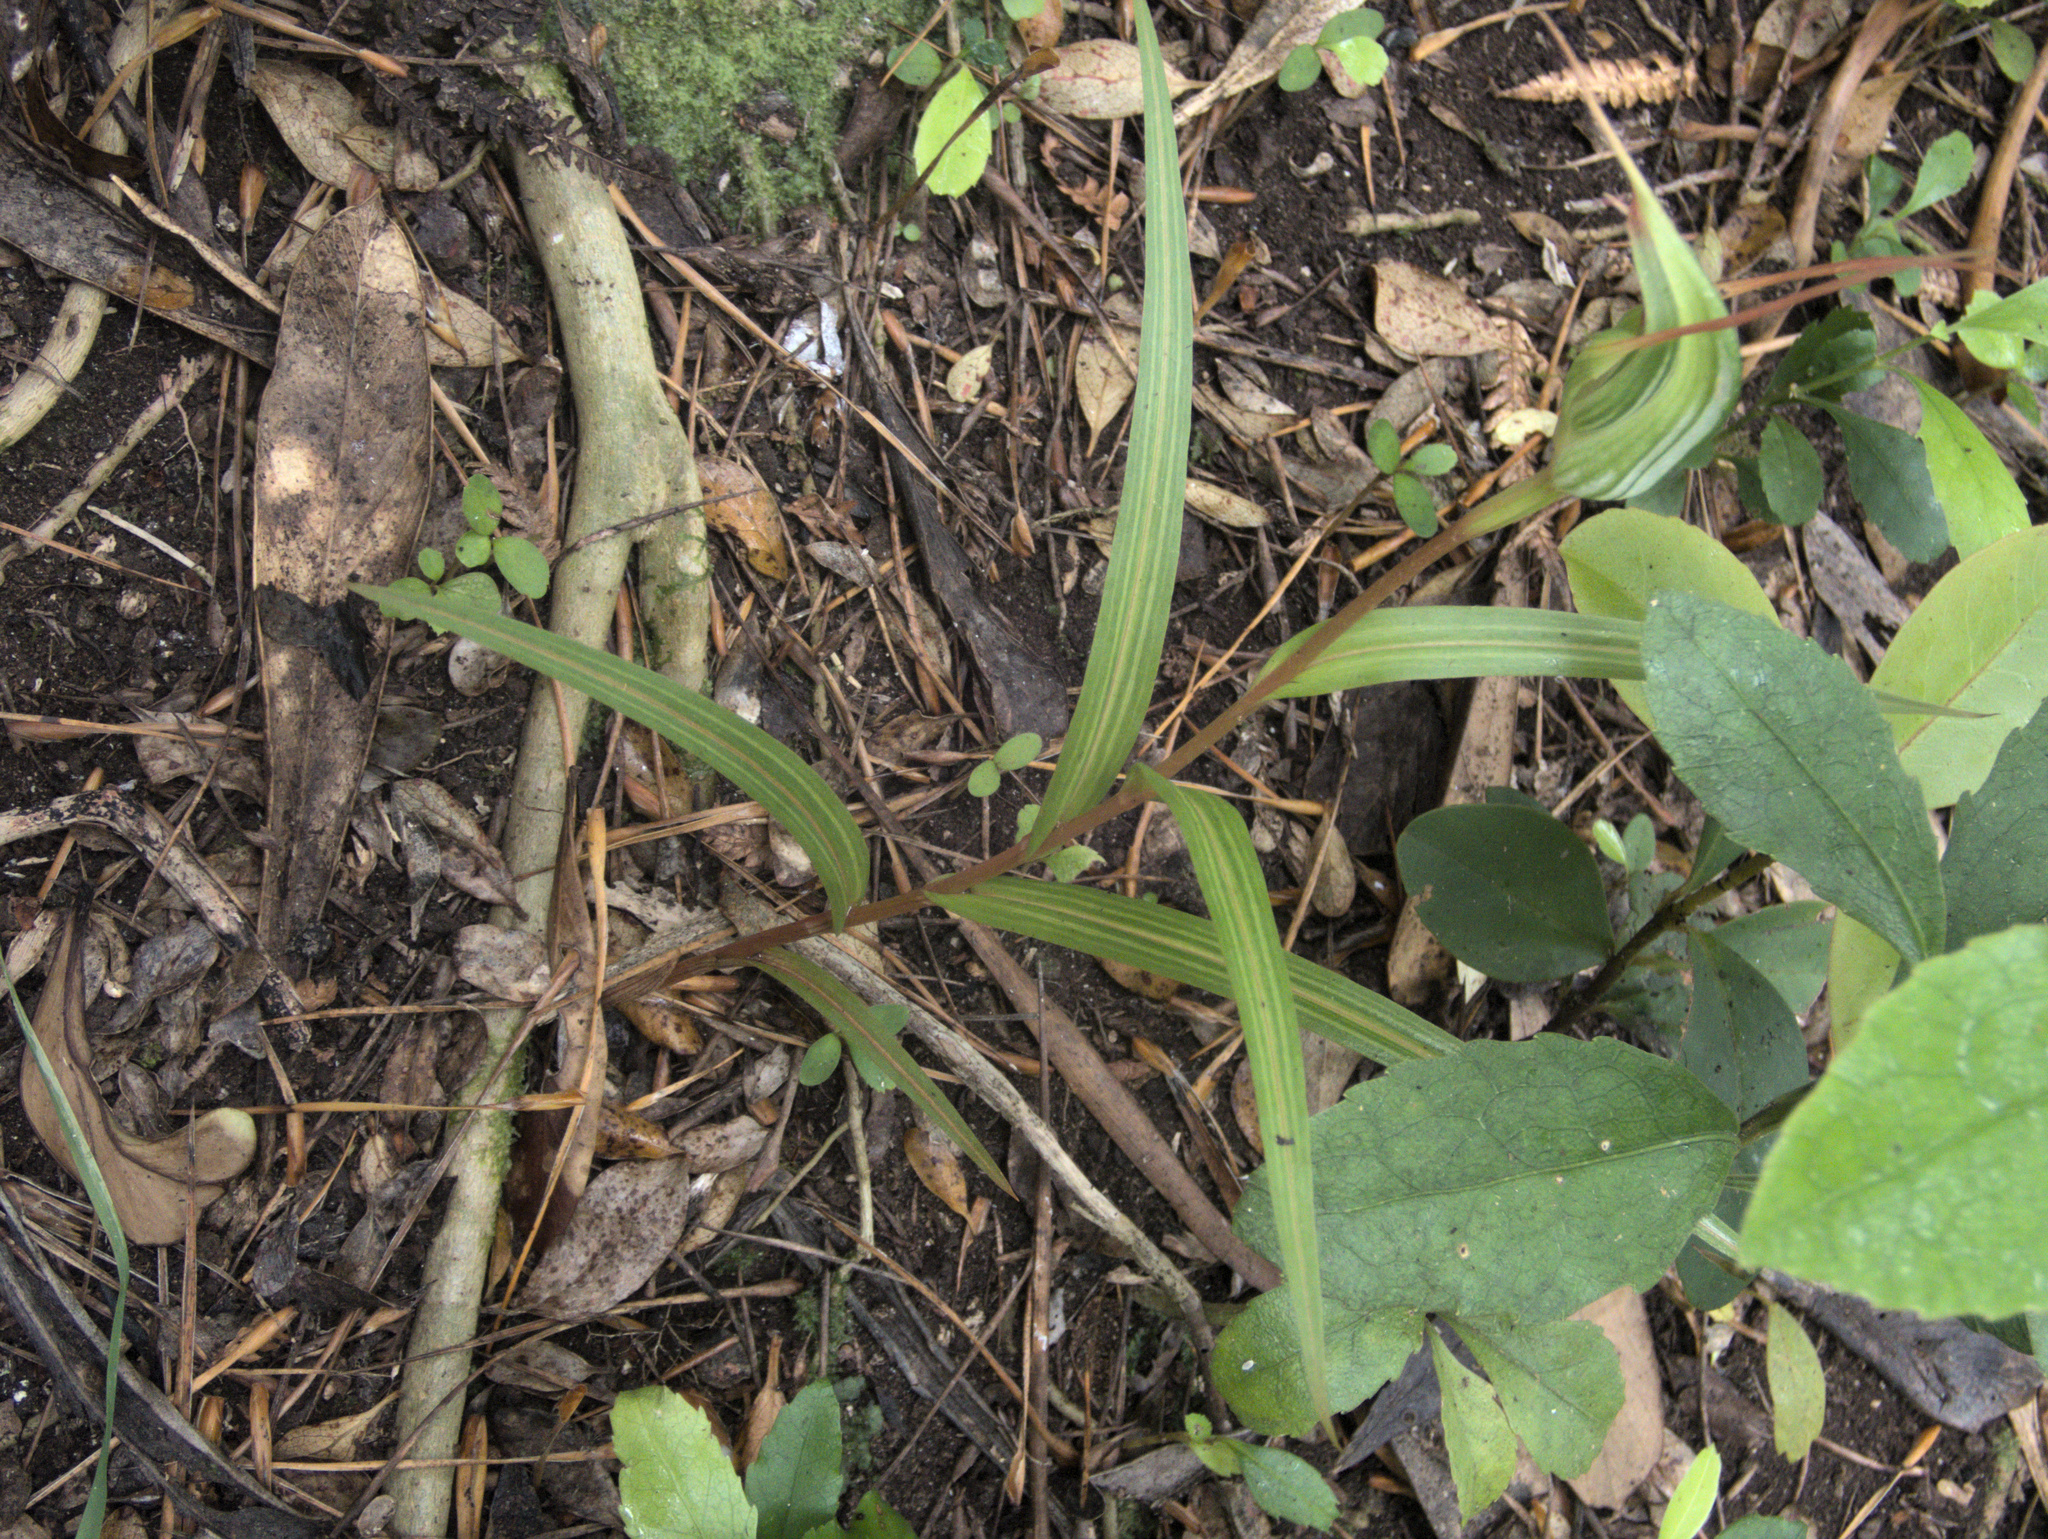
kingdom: Plantae
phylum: Tracheophyta
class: Liliopsida
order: Asparagales
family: Orchidaceae
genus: Pterostylis
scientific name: Pterostylis banksii
